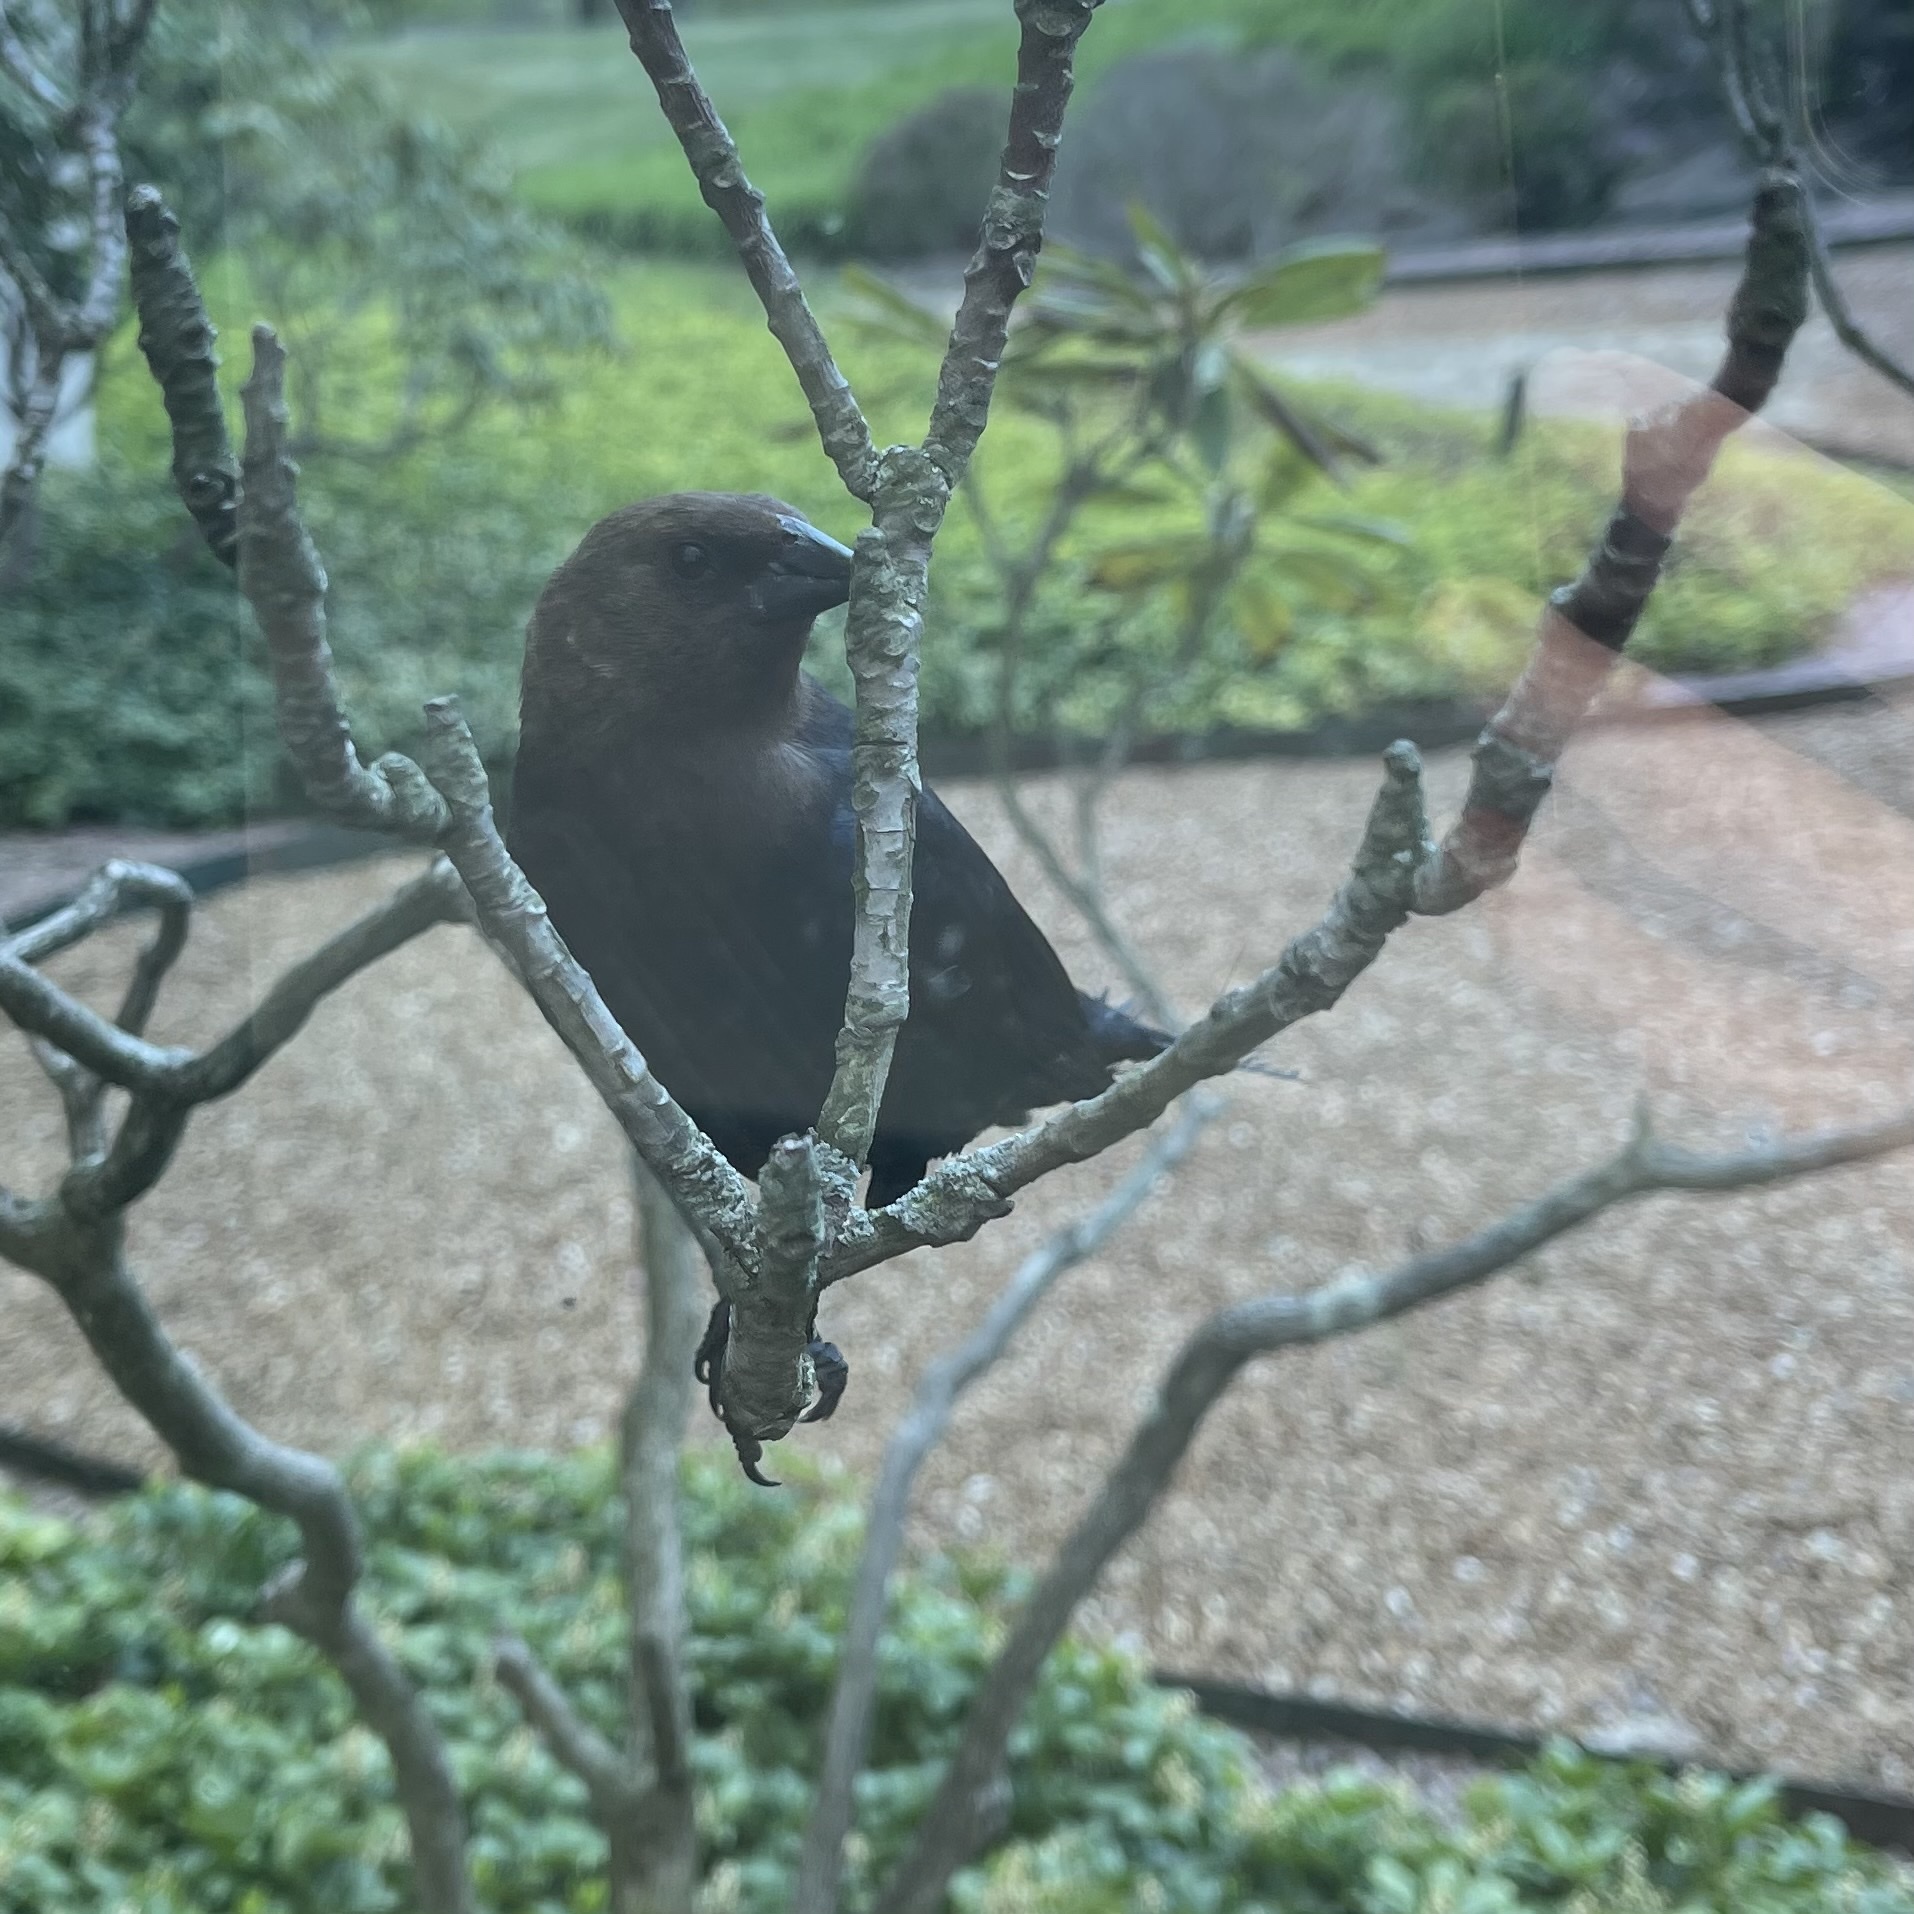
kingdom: Animalia
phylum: Chordata
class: Aves
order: Passeriformes
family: Icteridae
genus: Molothrus
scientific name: Molothrus ater
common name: Brown-headed cowbird
